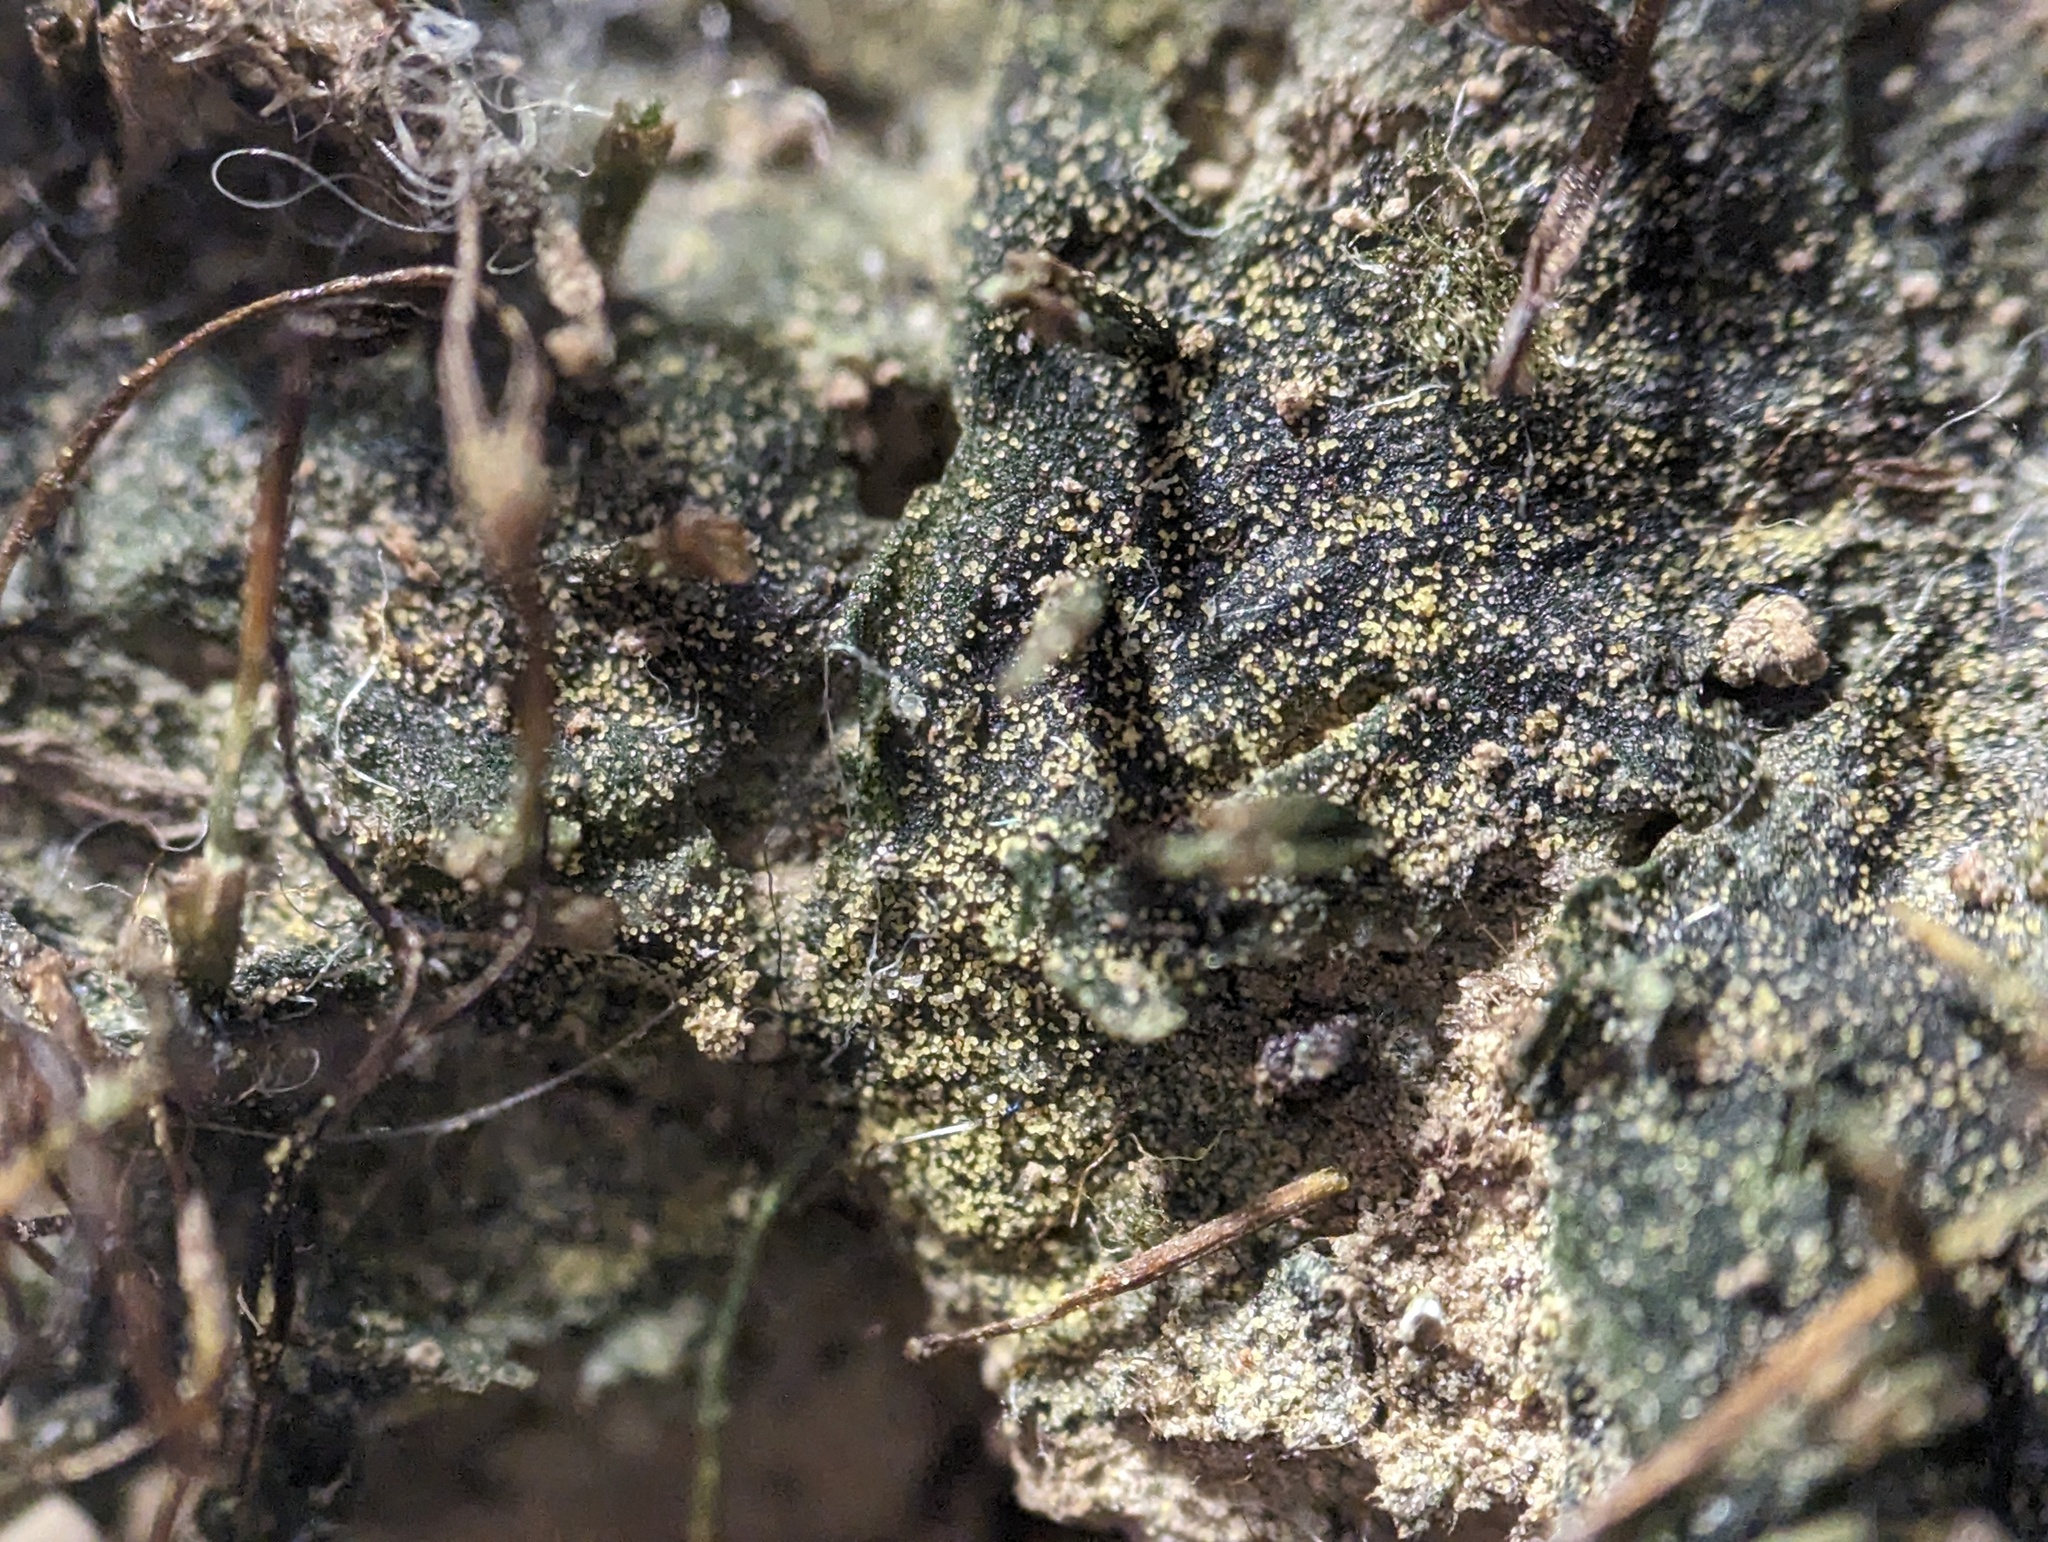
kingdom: Plantae
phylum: Anthocerotophyta
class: Anthocerotopsida
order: Notothyladales
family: Notothyladaceae
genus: Phaeoceros
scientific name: Phaeoceros carolinianus
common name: Carolina hornwort
